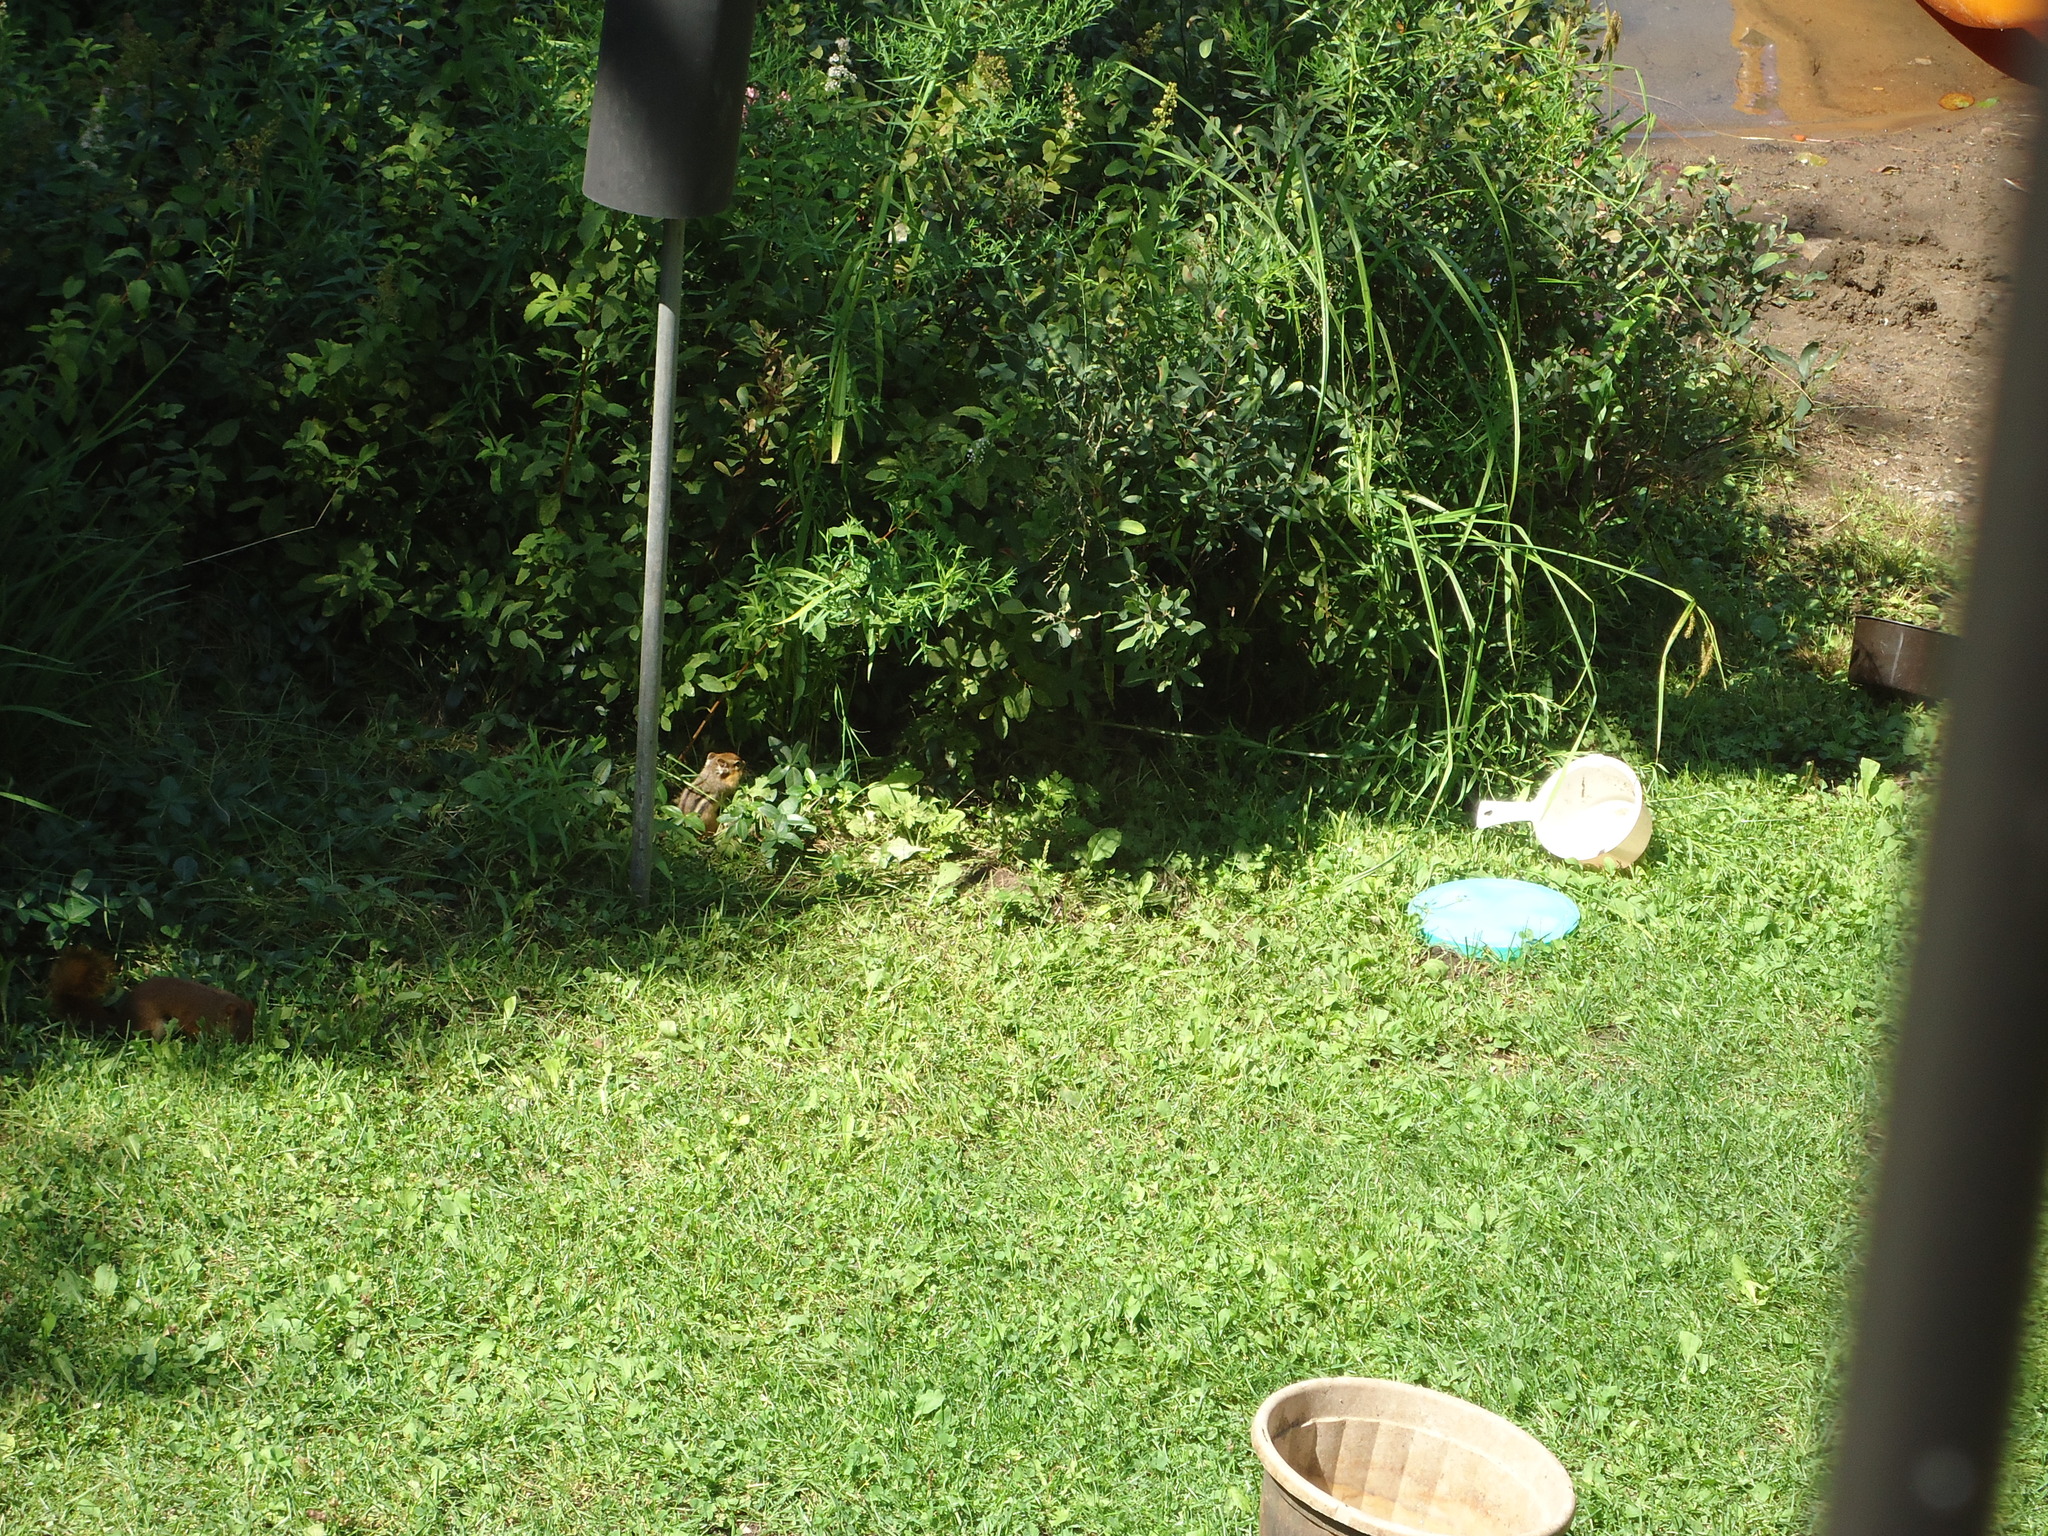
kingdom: Animalia
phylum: Chordata
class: Mammalia
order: Rodentia
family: Sciuridae
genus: Tamias
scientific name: Tamias striatus
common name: Eastern chipmunk
